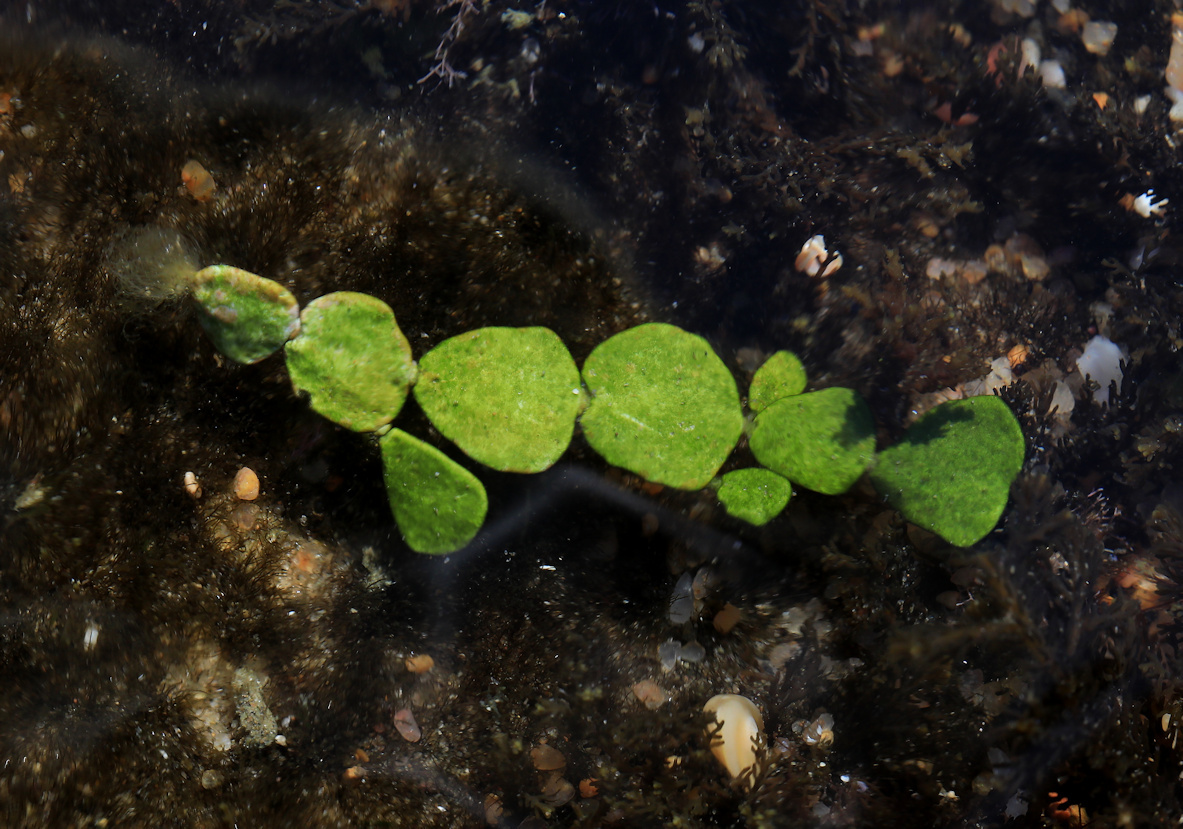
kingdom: Plantae
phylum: Chlorophyta
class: Ulvophyceae
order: Bryopsidales
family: Halimedaceae
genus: Halimeda
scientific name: Halimeda cuneata
